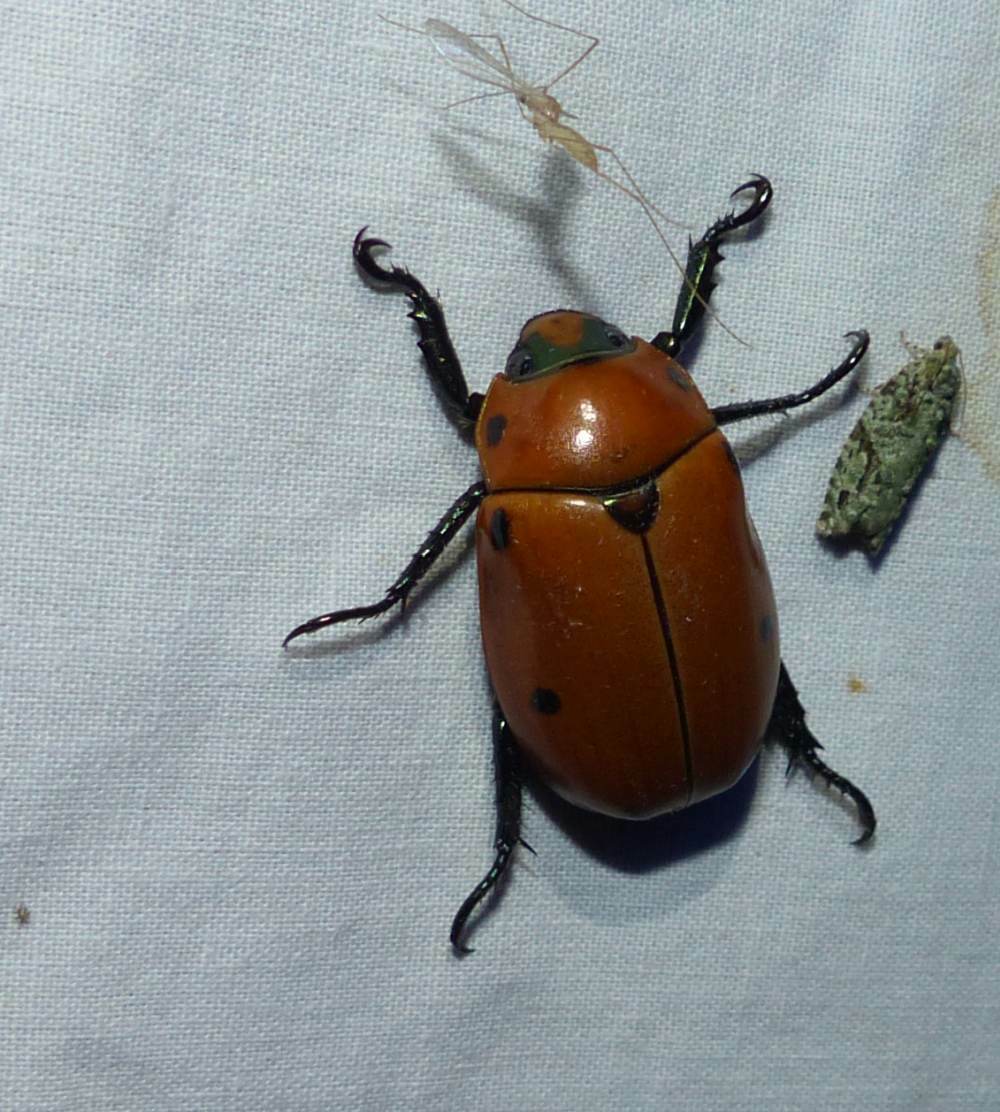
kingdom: Animalia
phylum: Arthropoda
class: Insecta
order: Coleoptera
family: Scarabaeidae
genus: Pelidnota
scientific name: Pelidnota punctata
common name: Grapevine beetle
